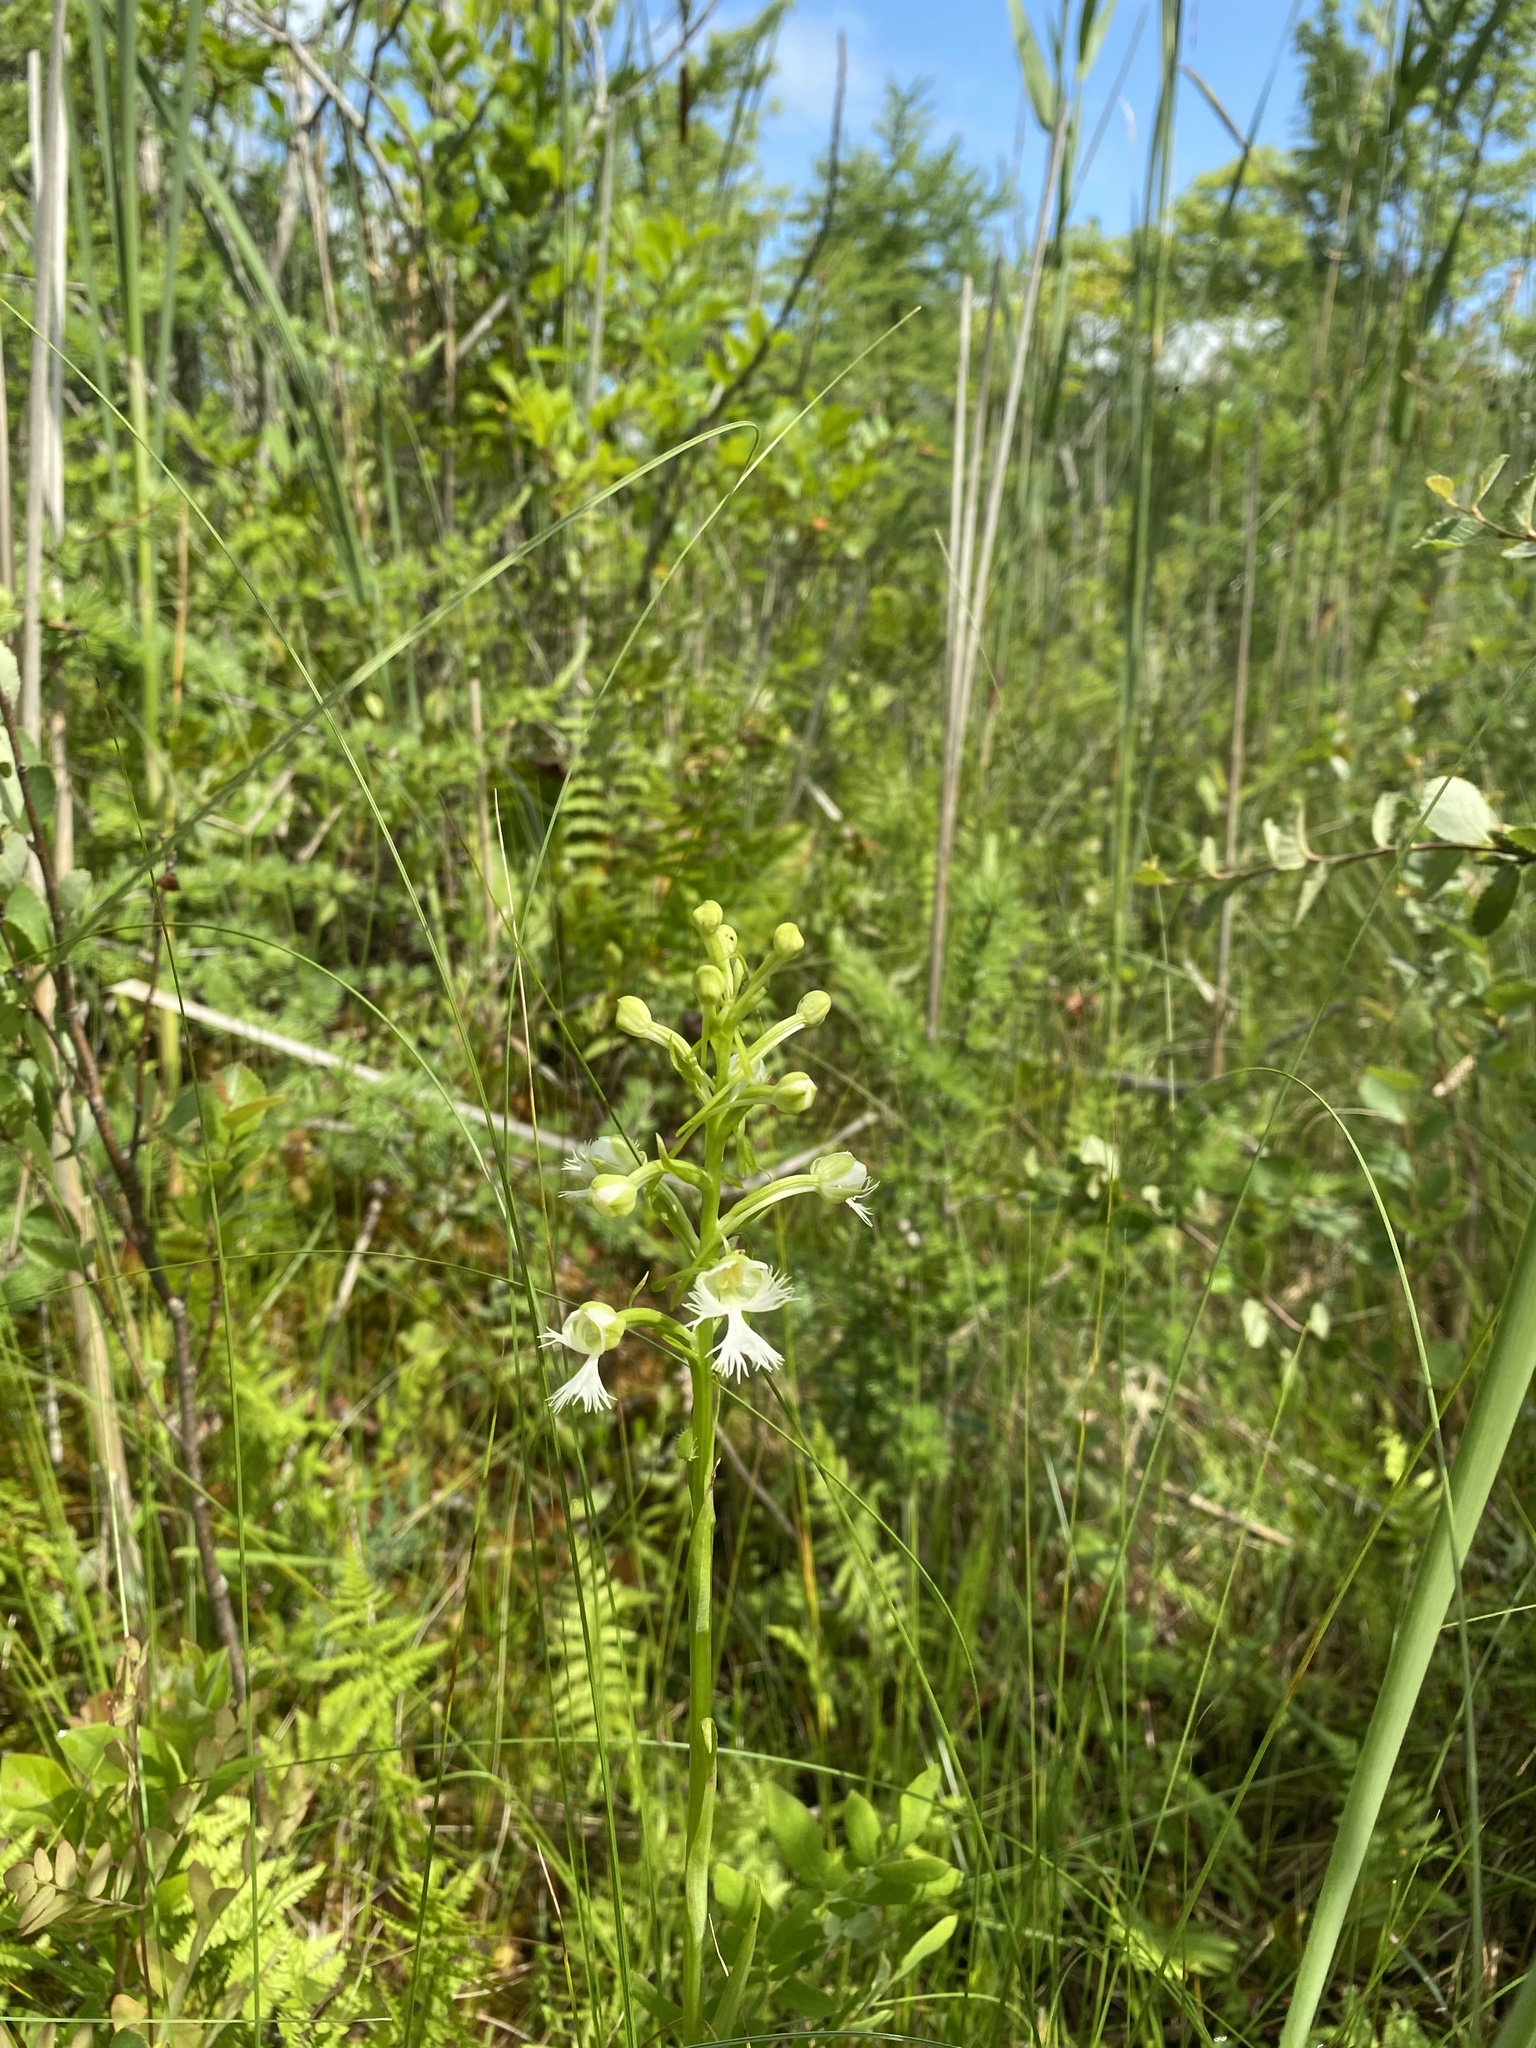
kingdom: Plantae
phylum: Tracheophyta
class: Liliopsida
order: Asparagales
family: Orchidaceae
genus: Platanthera
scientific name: Platanthera leucophaea
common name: Eastern prairie white-fringed orchid
